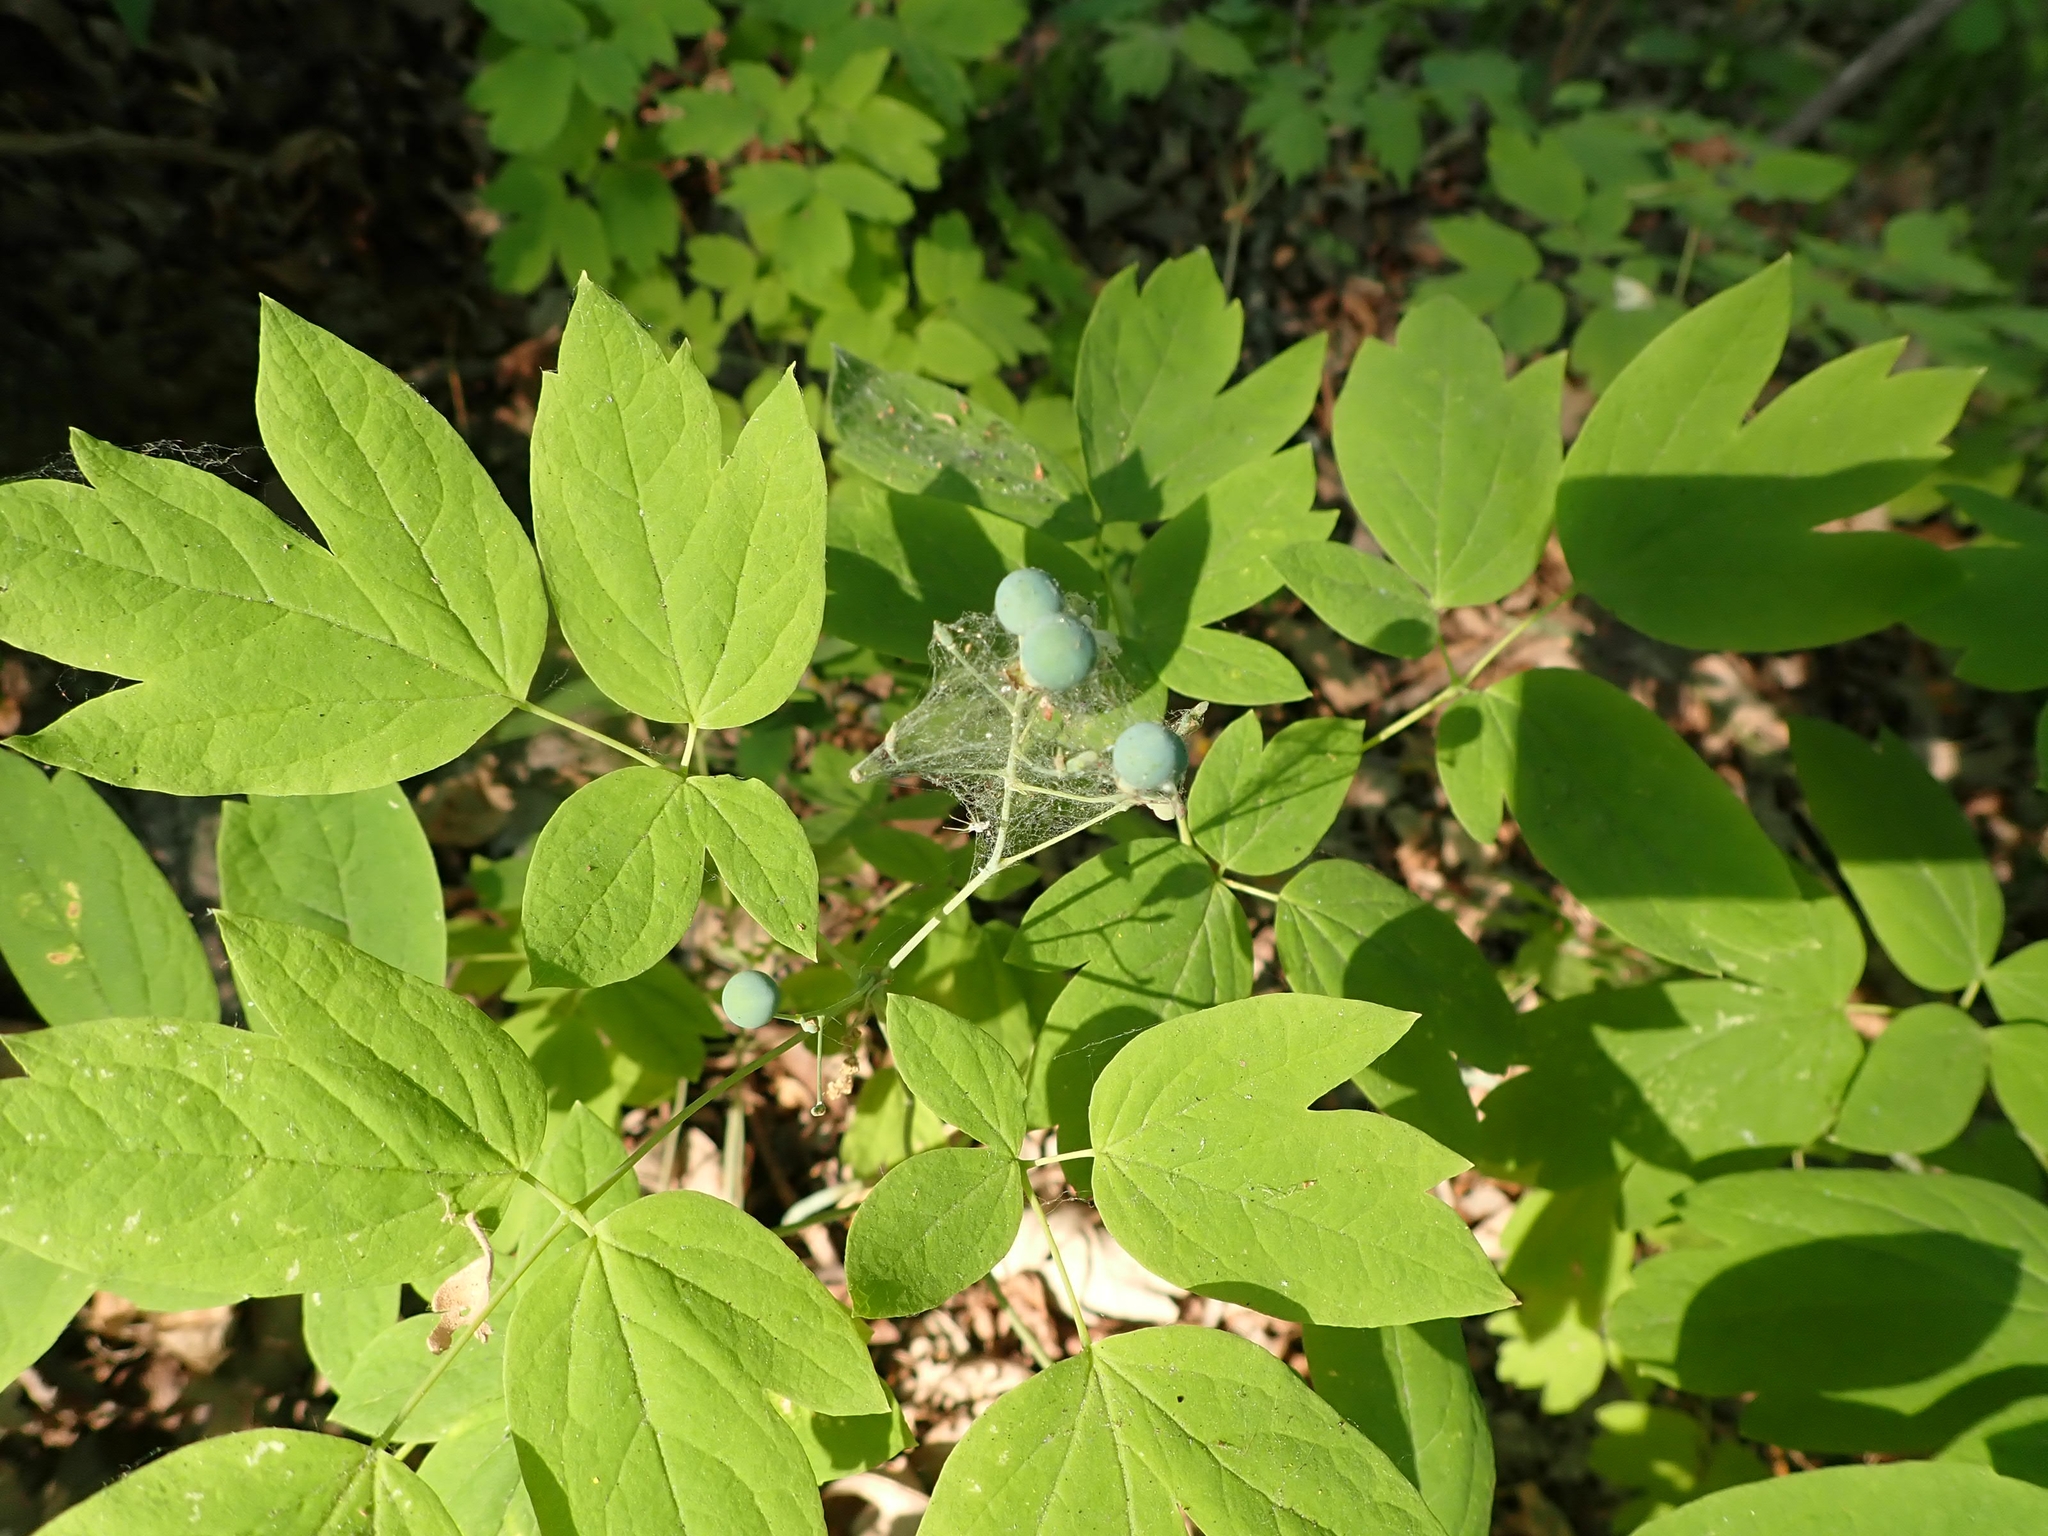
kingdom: Plantae
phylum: Tracheophyta
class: Magnoliopsida
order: Ranunculales
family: Berberidaceae
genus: Caulophyllum
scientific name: Caulophyllum thalictroides
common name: Blue cohosh
